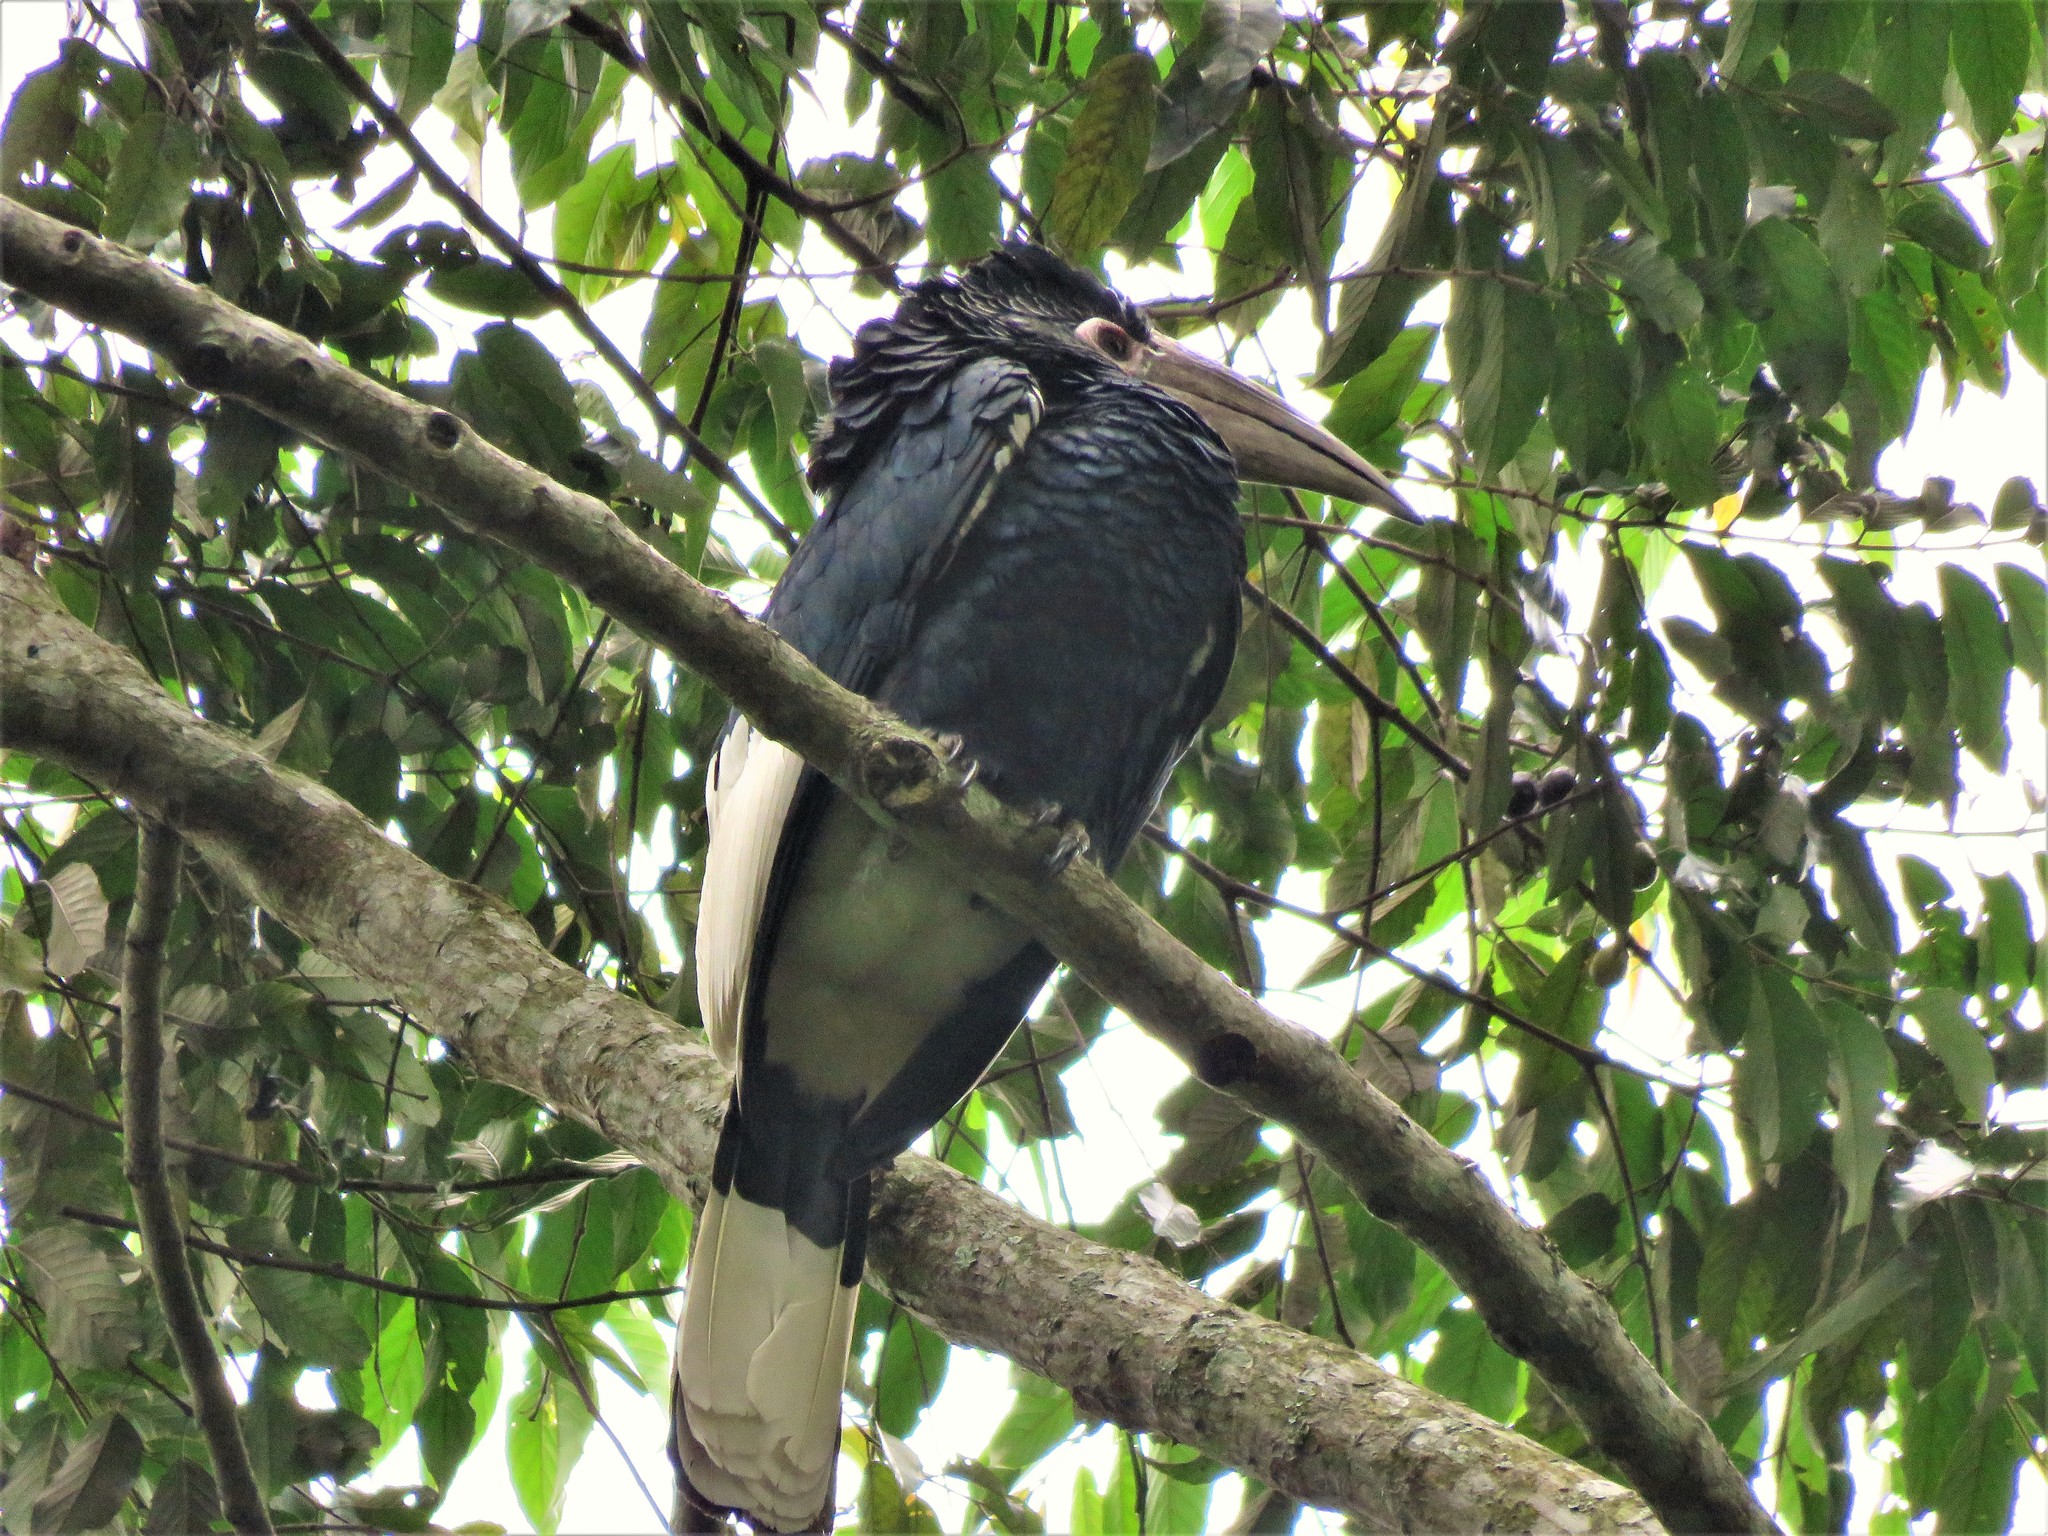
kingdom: Animalia
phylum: Chordata
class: Aves
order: Bucerotiformes
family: Bucerotidae
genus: Bycanistes
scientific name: Bycanistes subcylindricus
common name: Black-and-white-casqued hornbill
